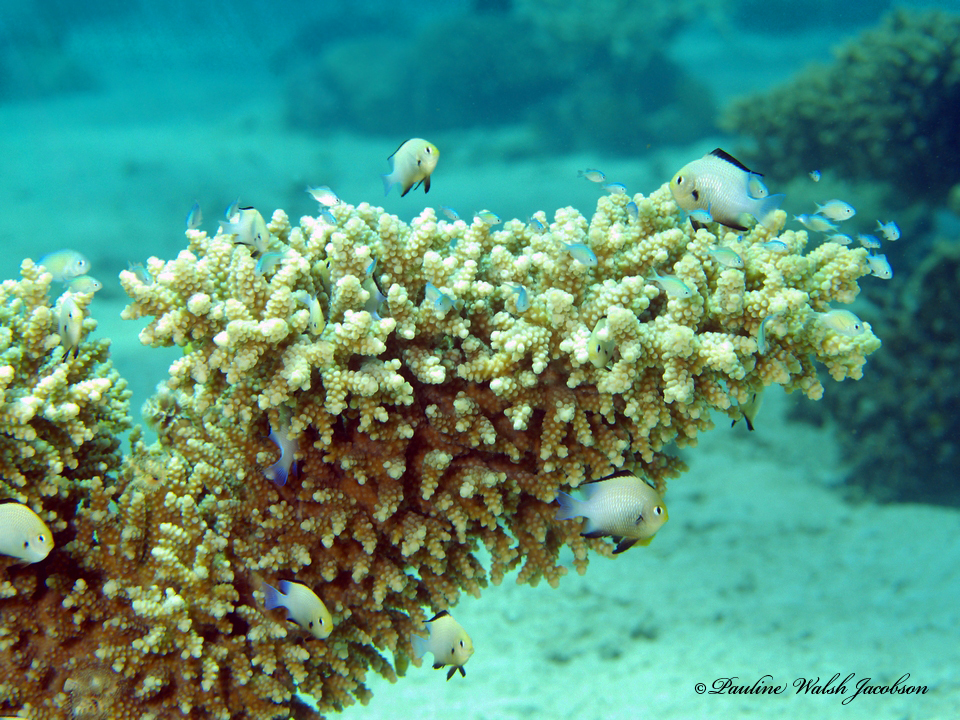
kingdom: Animalia
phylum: Chordata
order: Perciformes
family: Pomacentridae
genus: Dascyllus
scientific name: Dascyllus marginatus
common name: Red sea dascyllus
